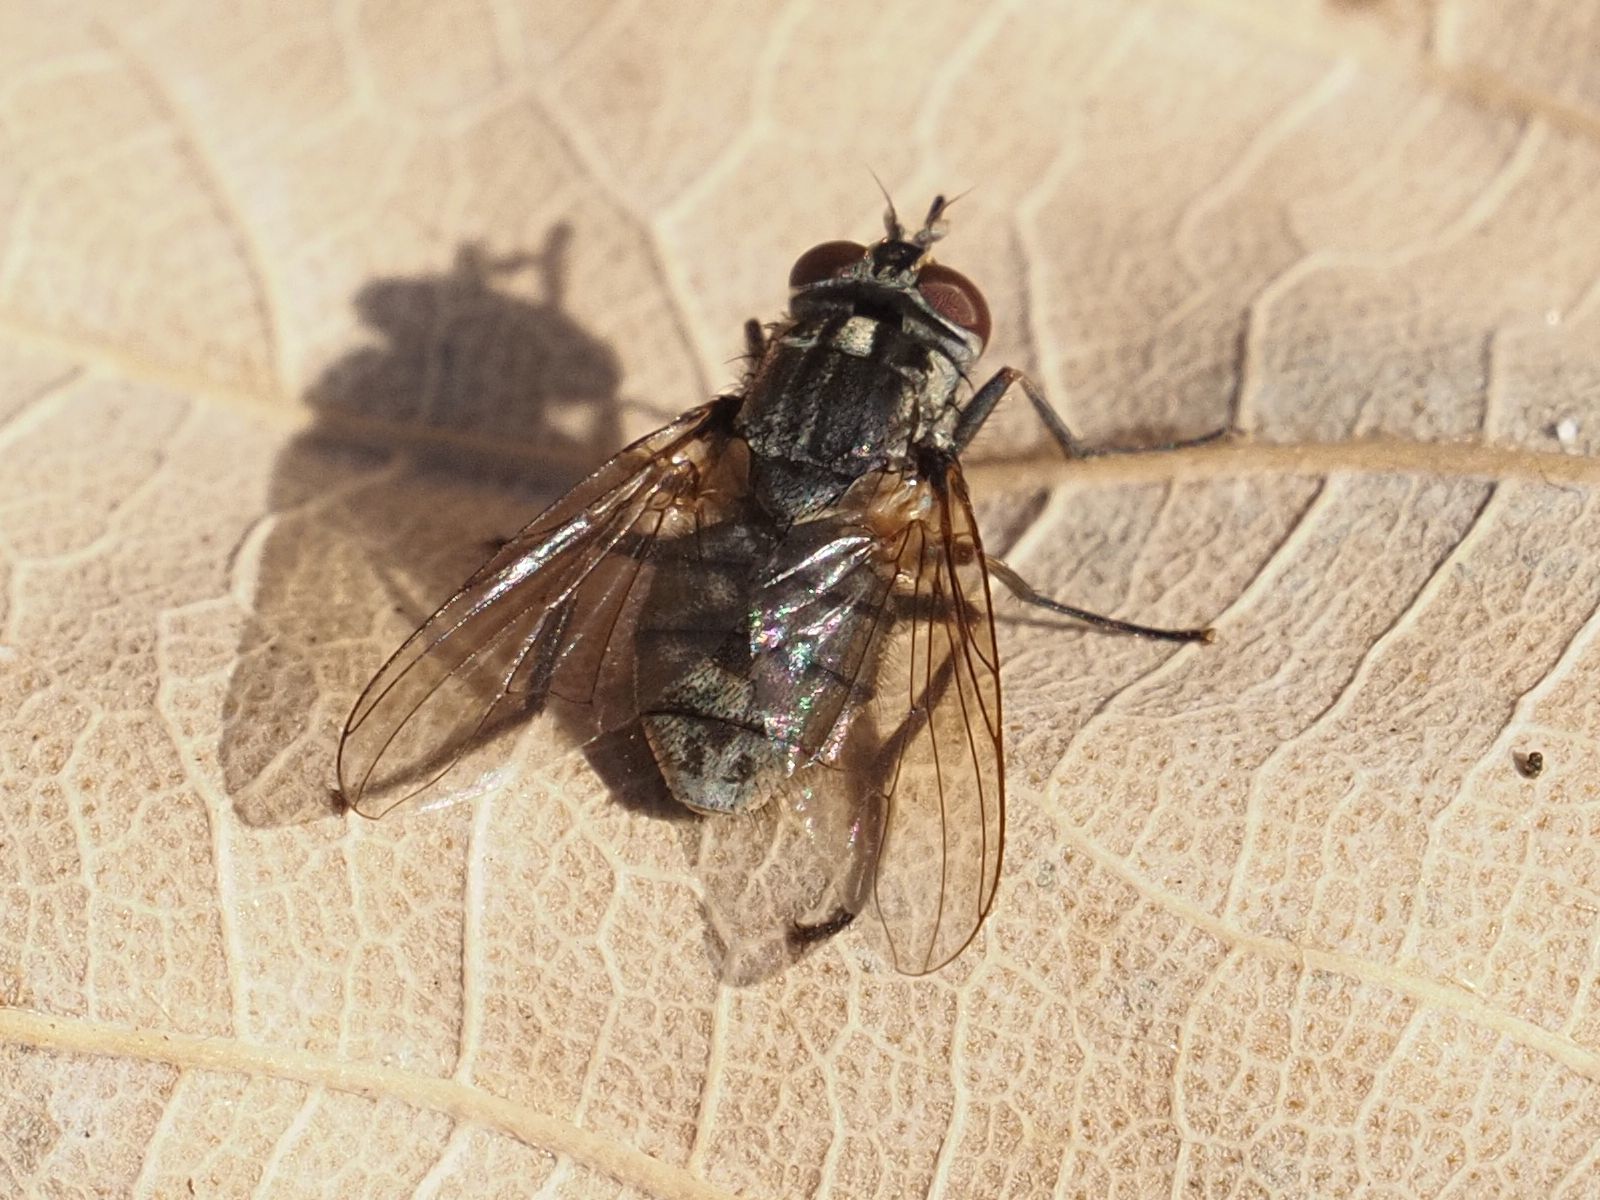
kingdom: Animalia
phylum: Arthropoda
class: Insecta
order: Diptera
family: Muscidae
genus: Stomoxys
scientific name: Stomoxys calcitrans
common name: Stable fly
